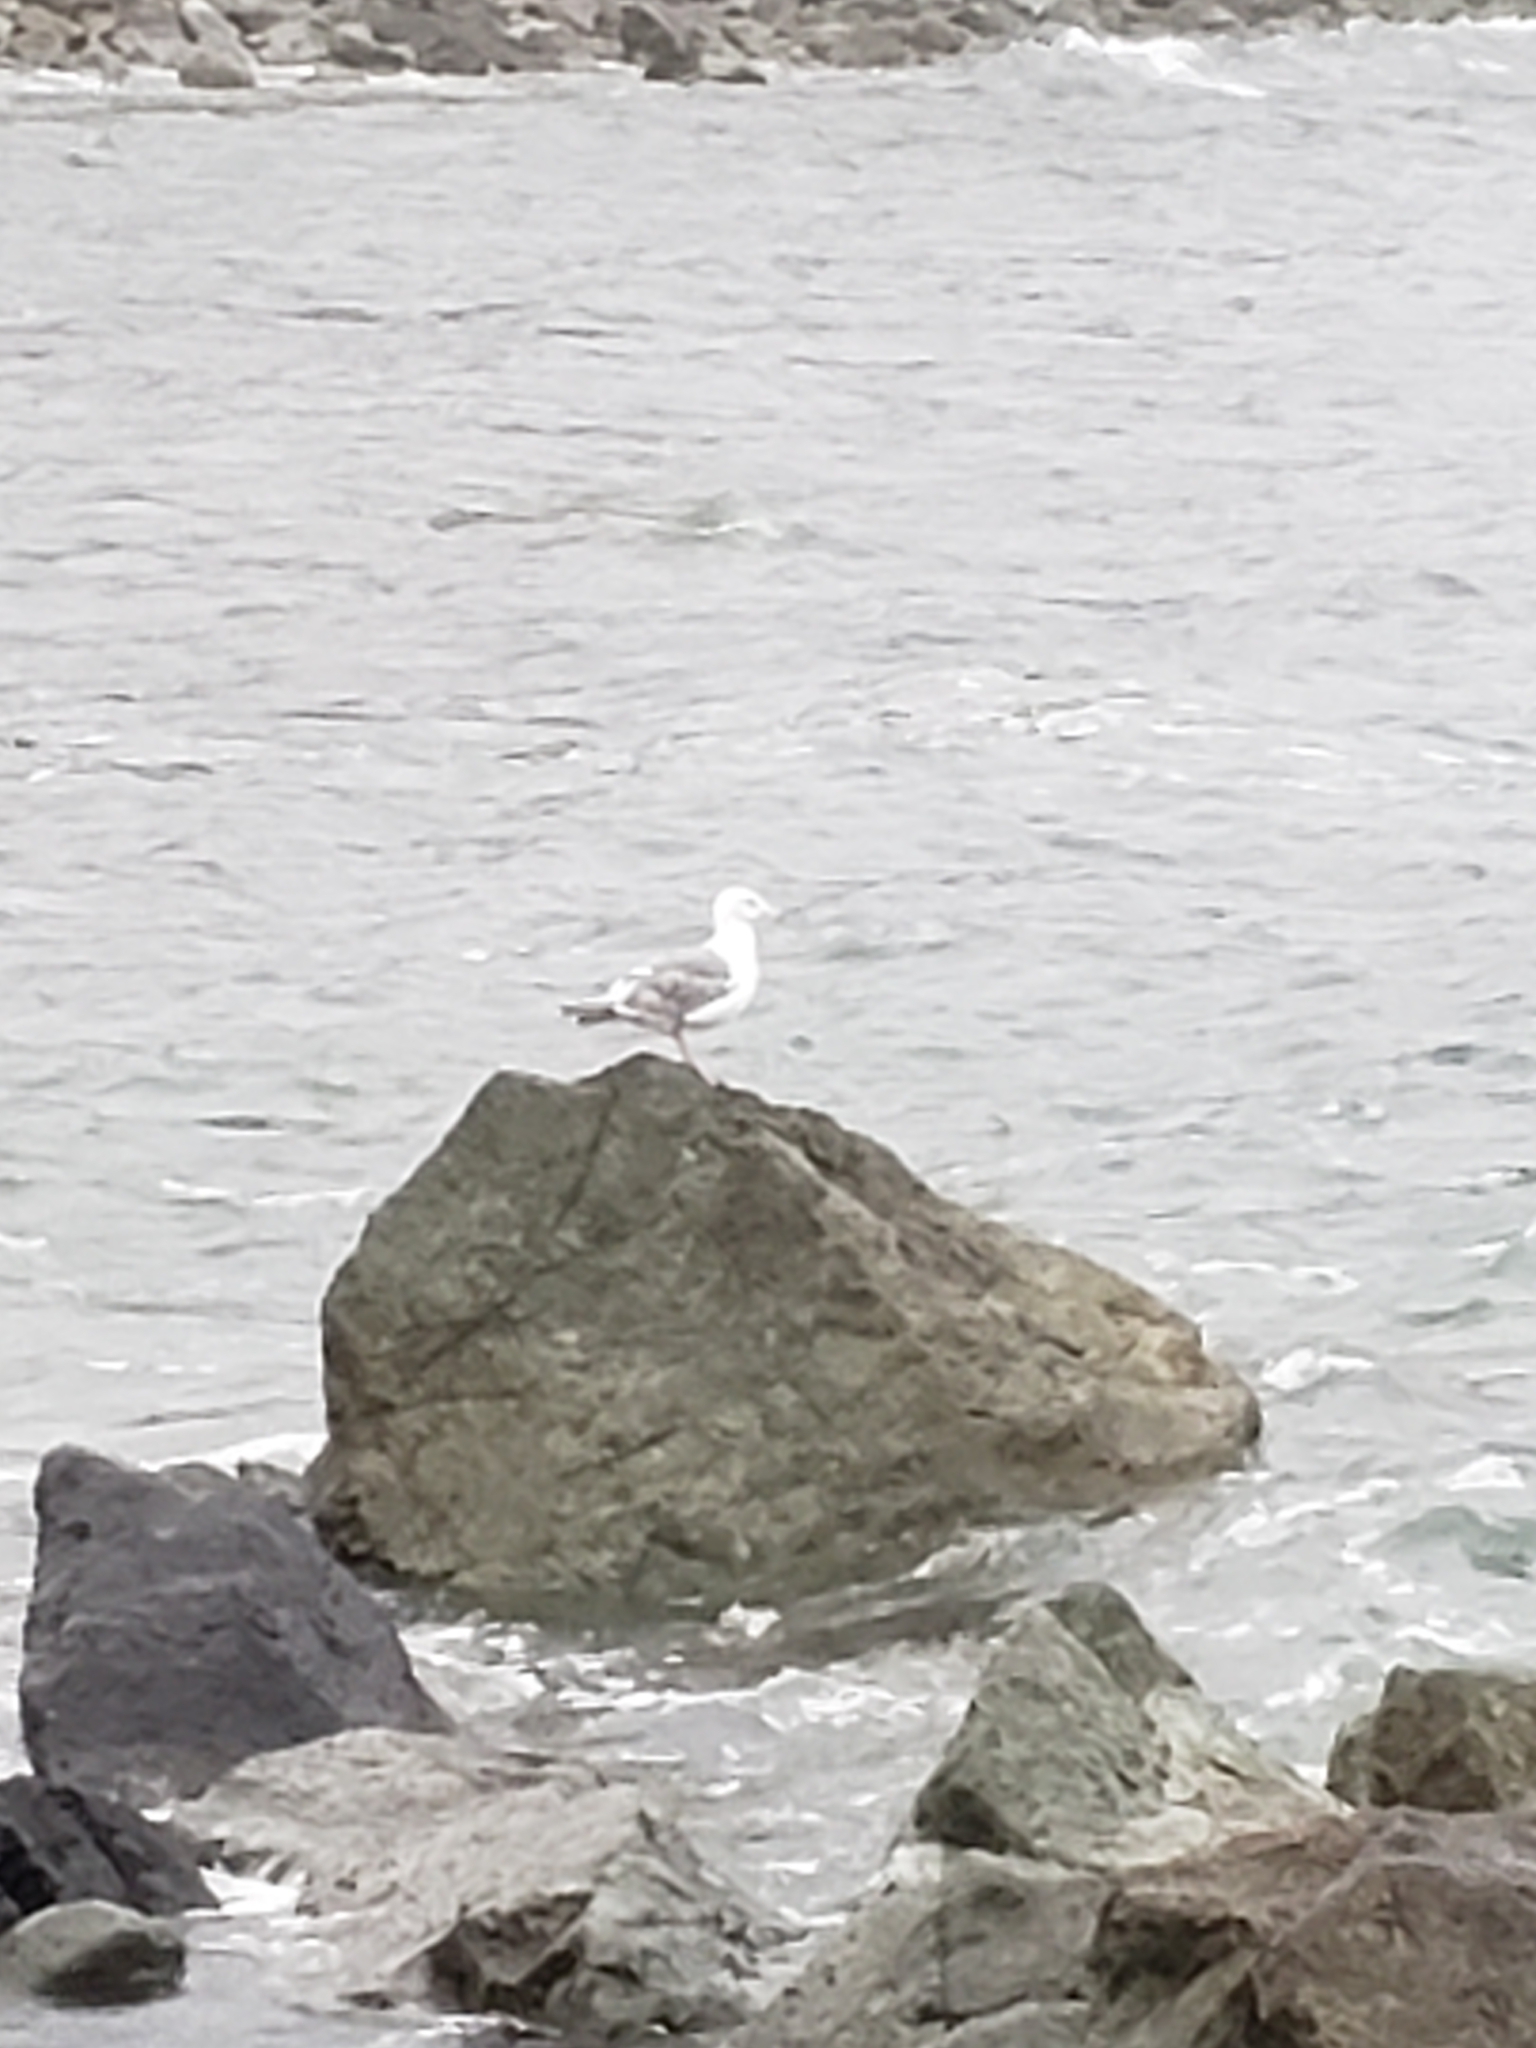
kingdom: Animalia
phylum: Chordata
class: Aves
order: Charadriiformes
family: Laridae
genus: Larus
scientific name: Larus occidentalis
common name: Western gull
